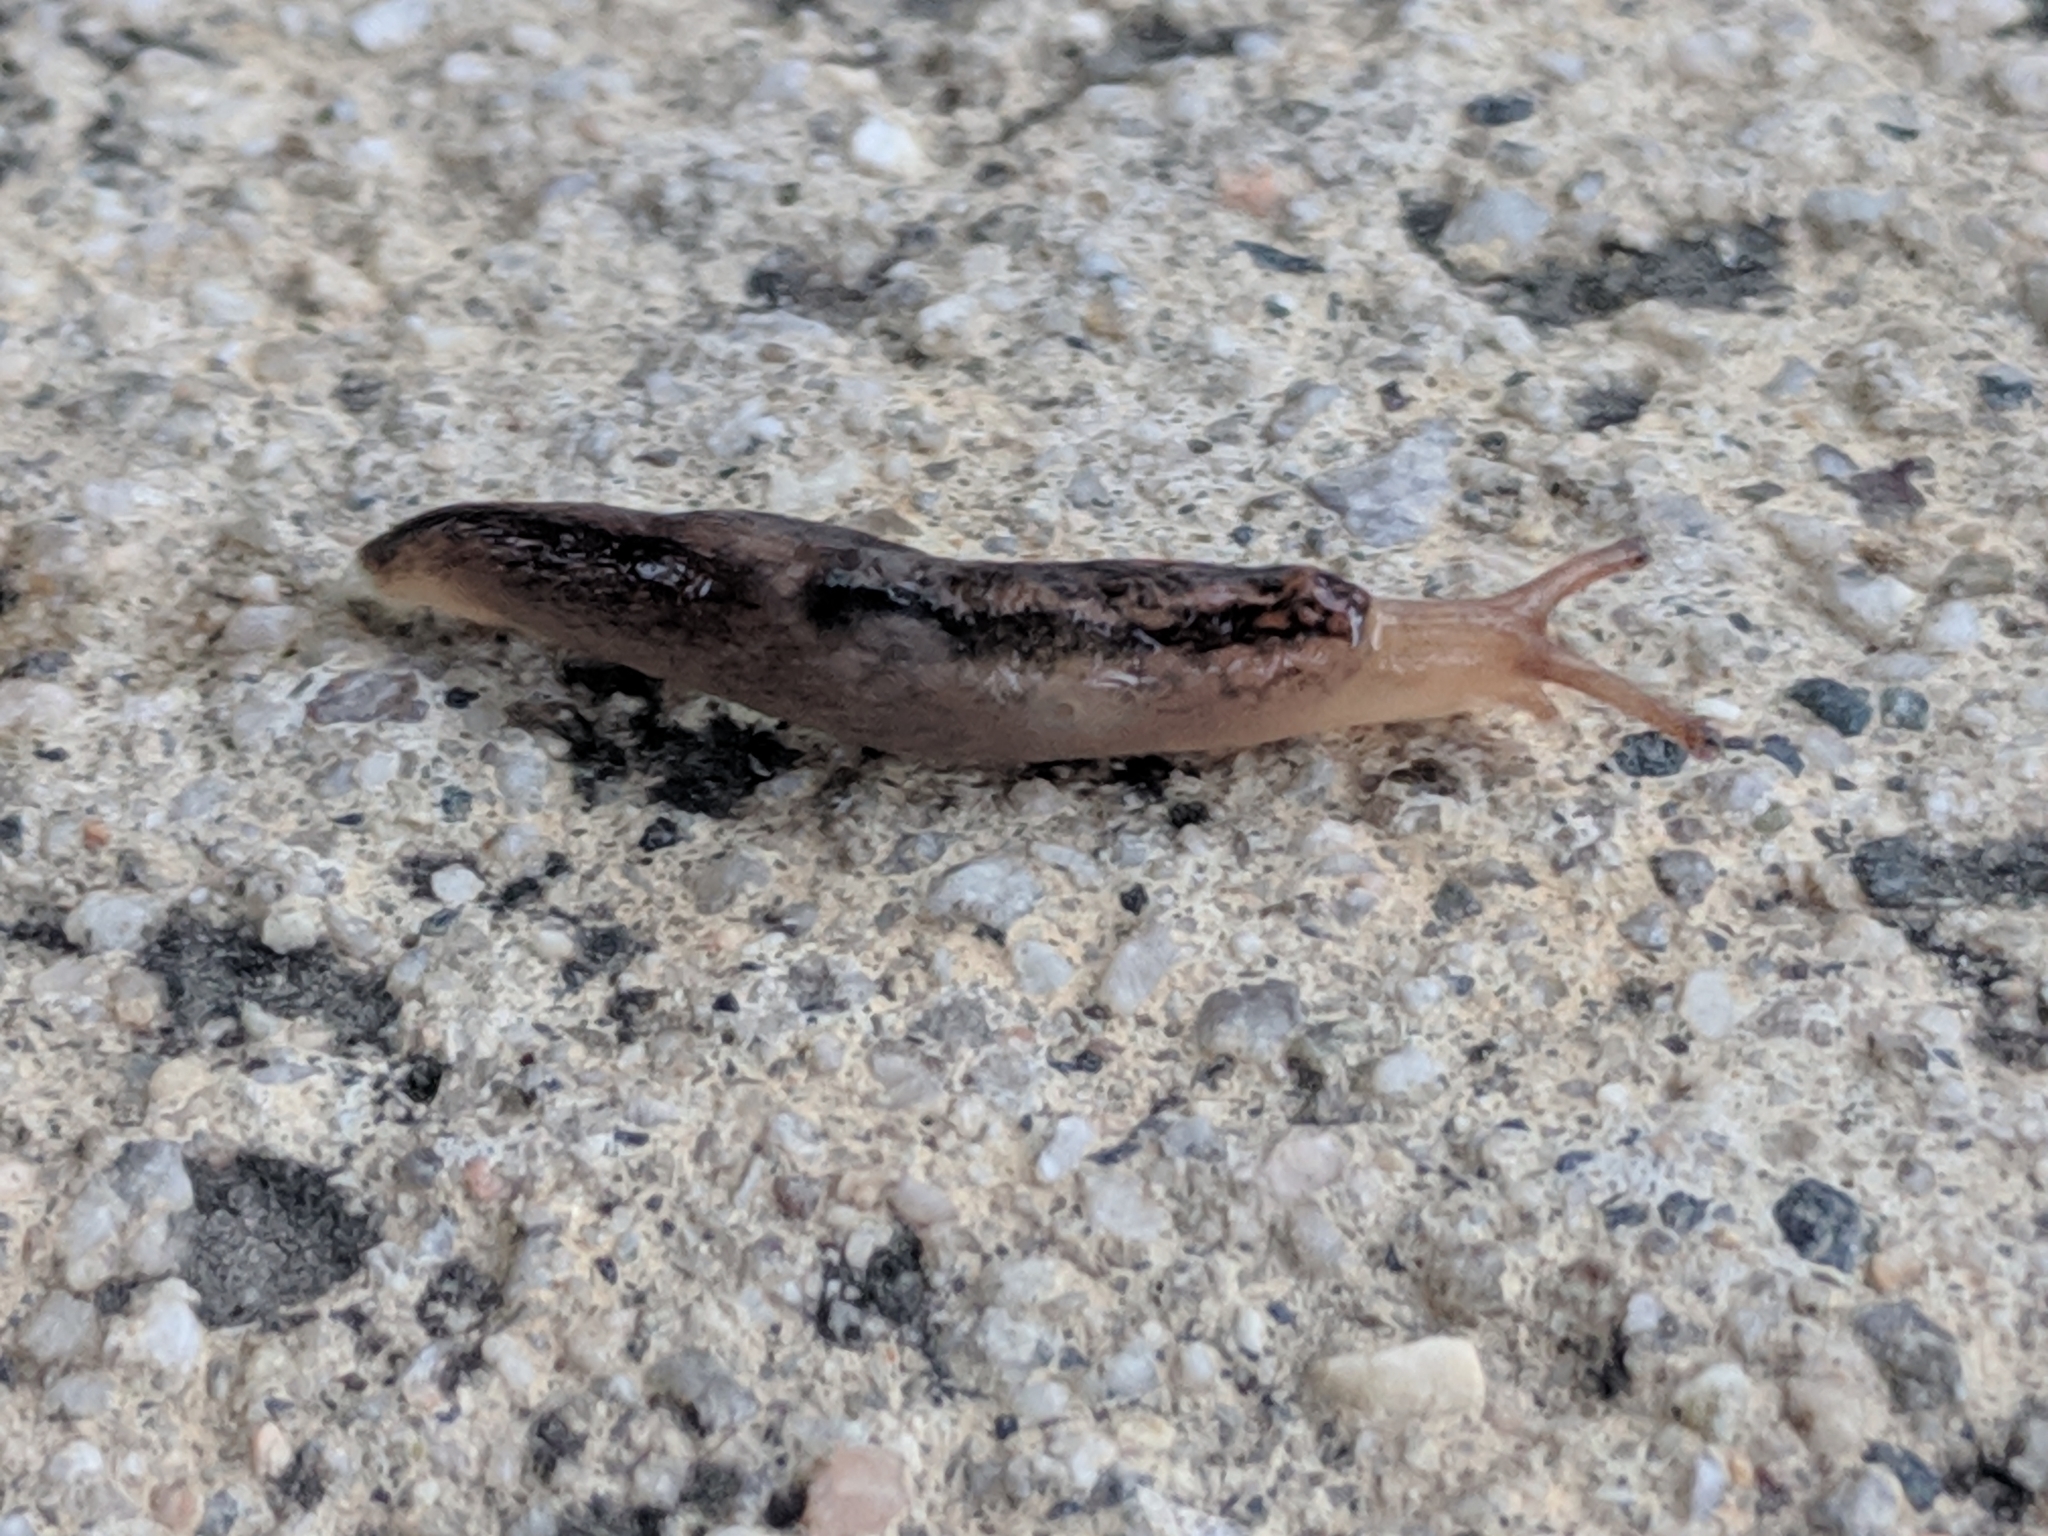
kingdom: Animalia
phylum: Mollusca
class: Gastropoda
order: Stylommatophora
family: Limacidae
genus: Ambigolimax
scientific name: Ambigolimax
